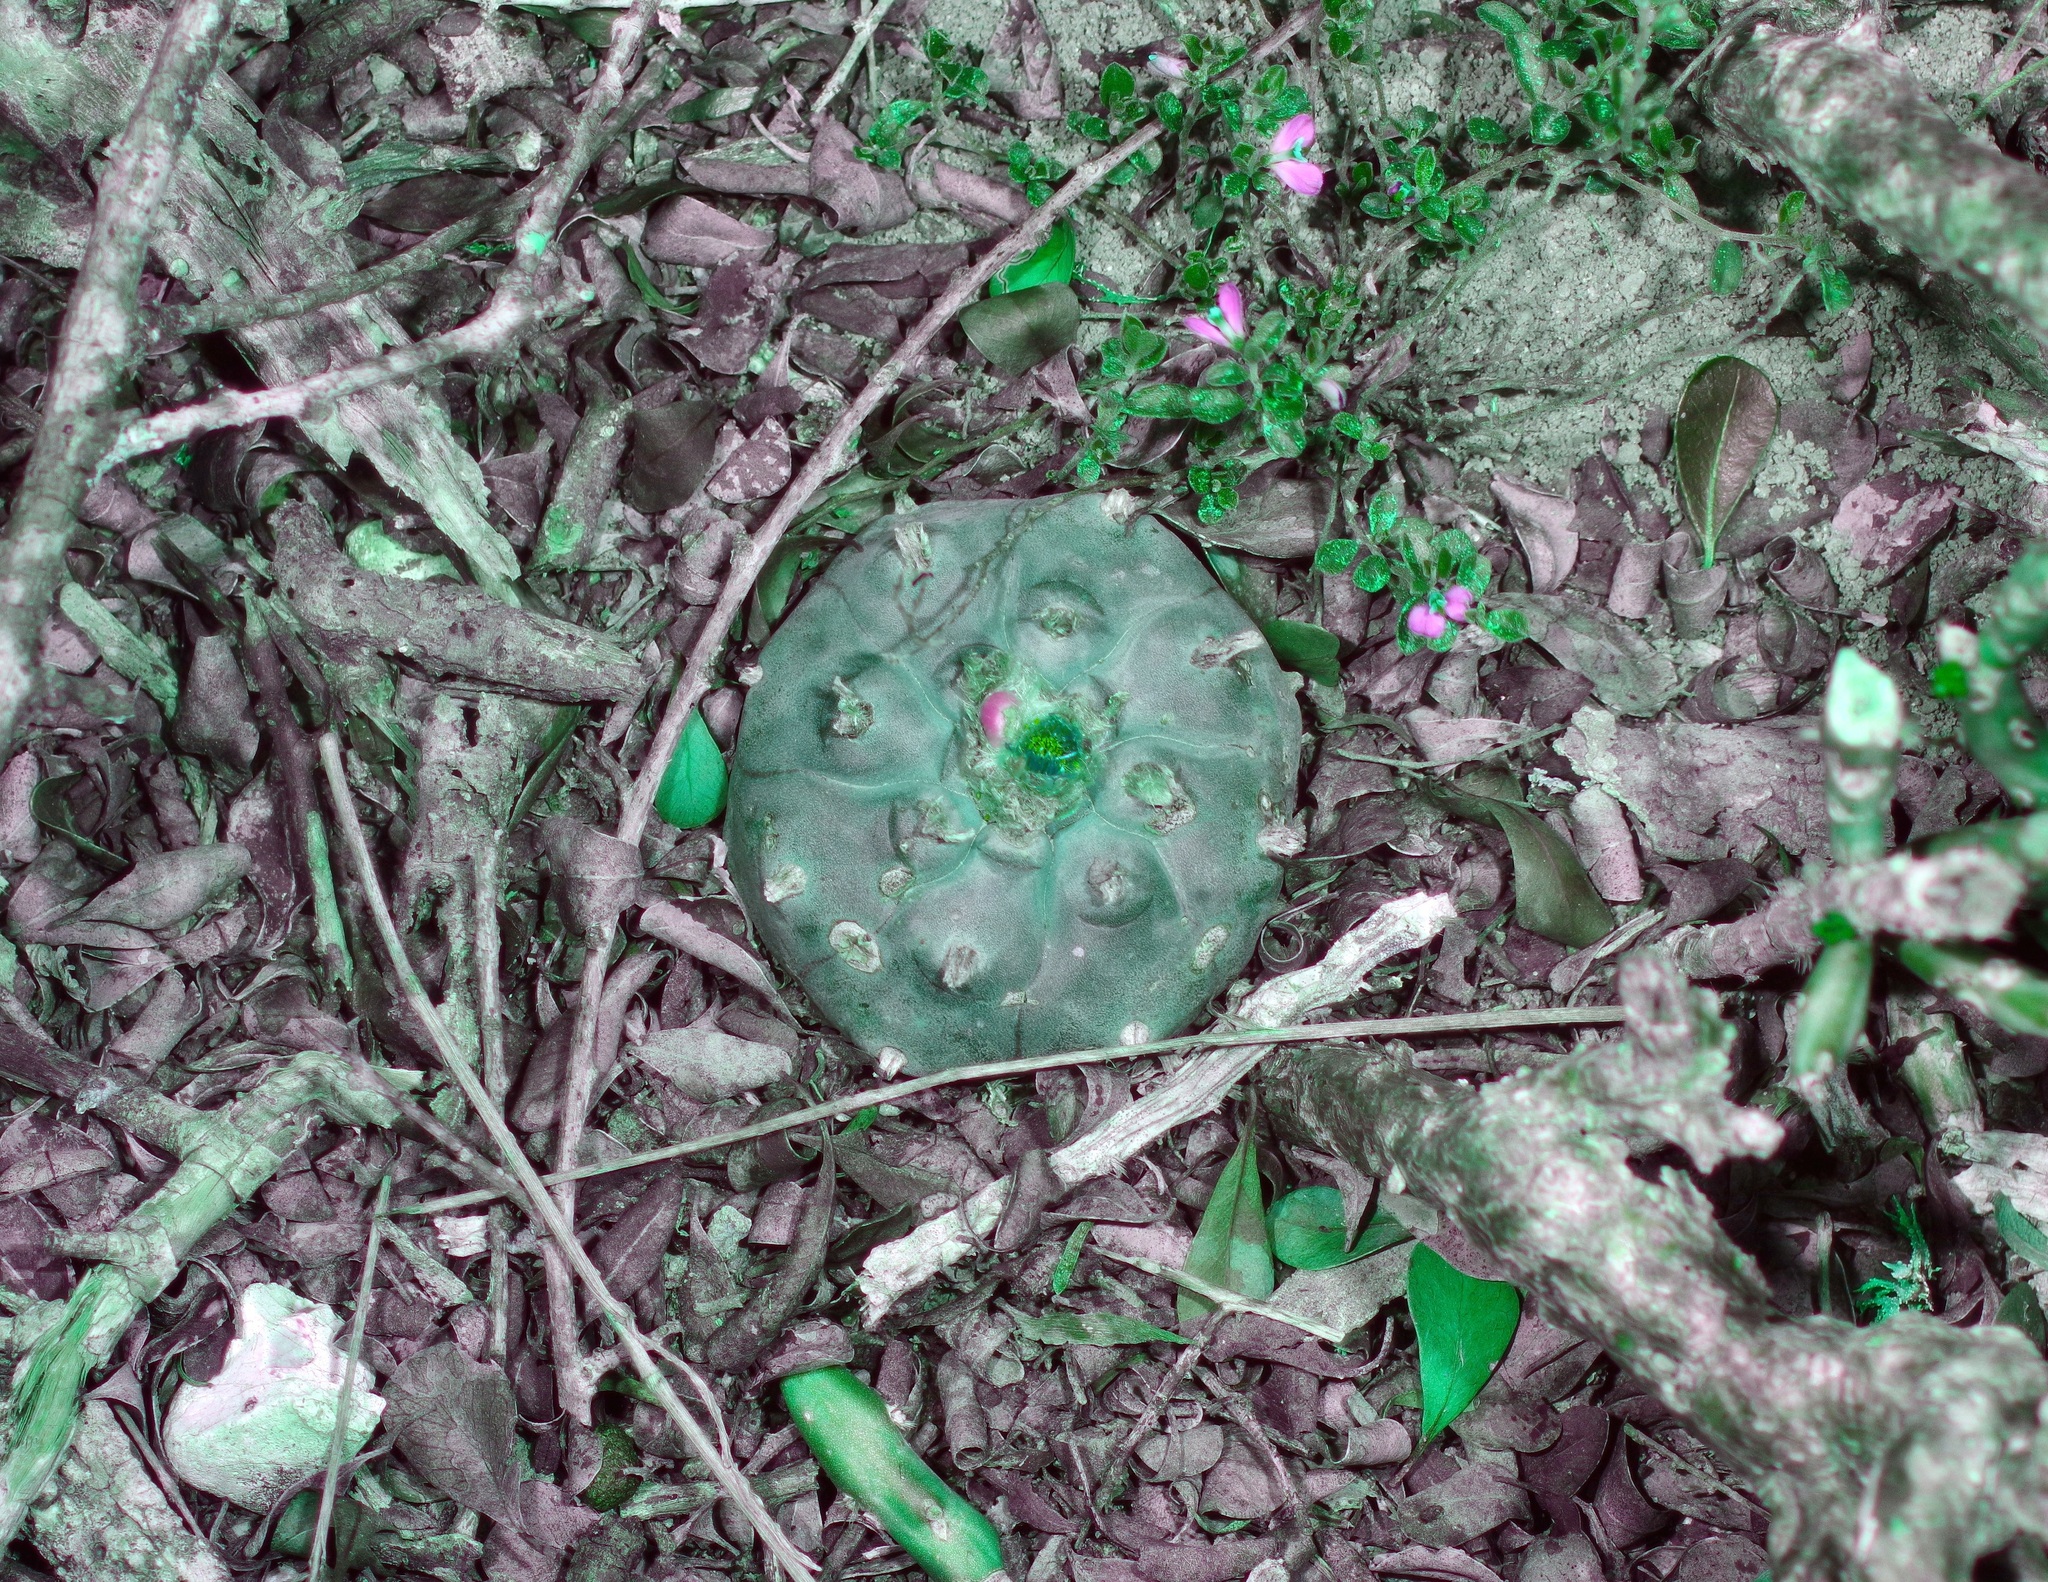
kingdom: Plantae
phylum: Tracheophyta
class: Magnoliopsida
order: Caryophyllales
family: Cactaceae
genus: Lophophora
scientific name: Lophophora williamsii
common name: Indian-dope
